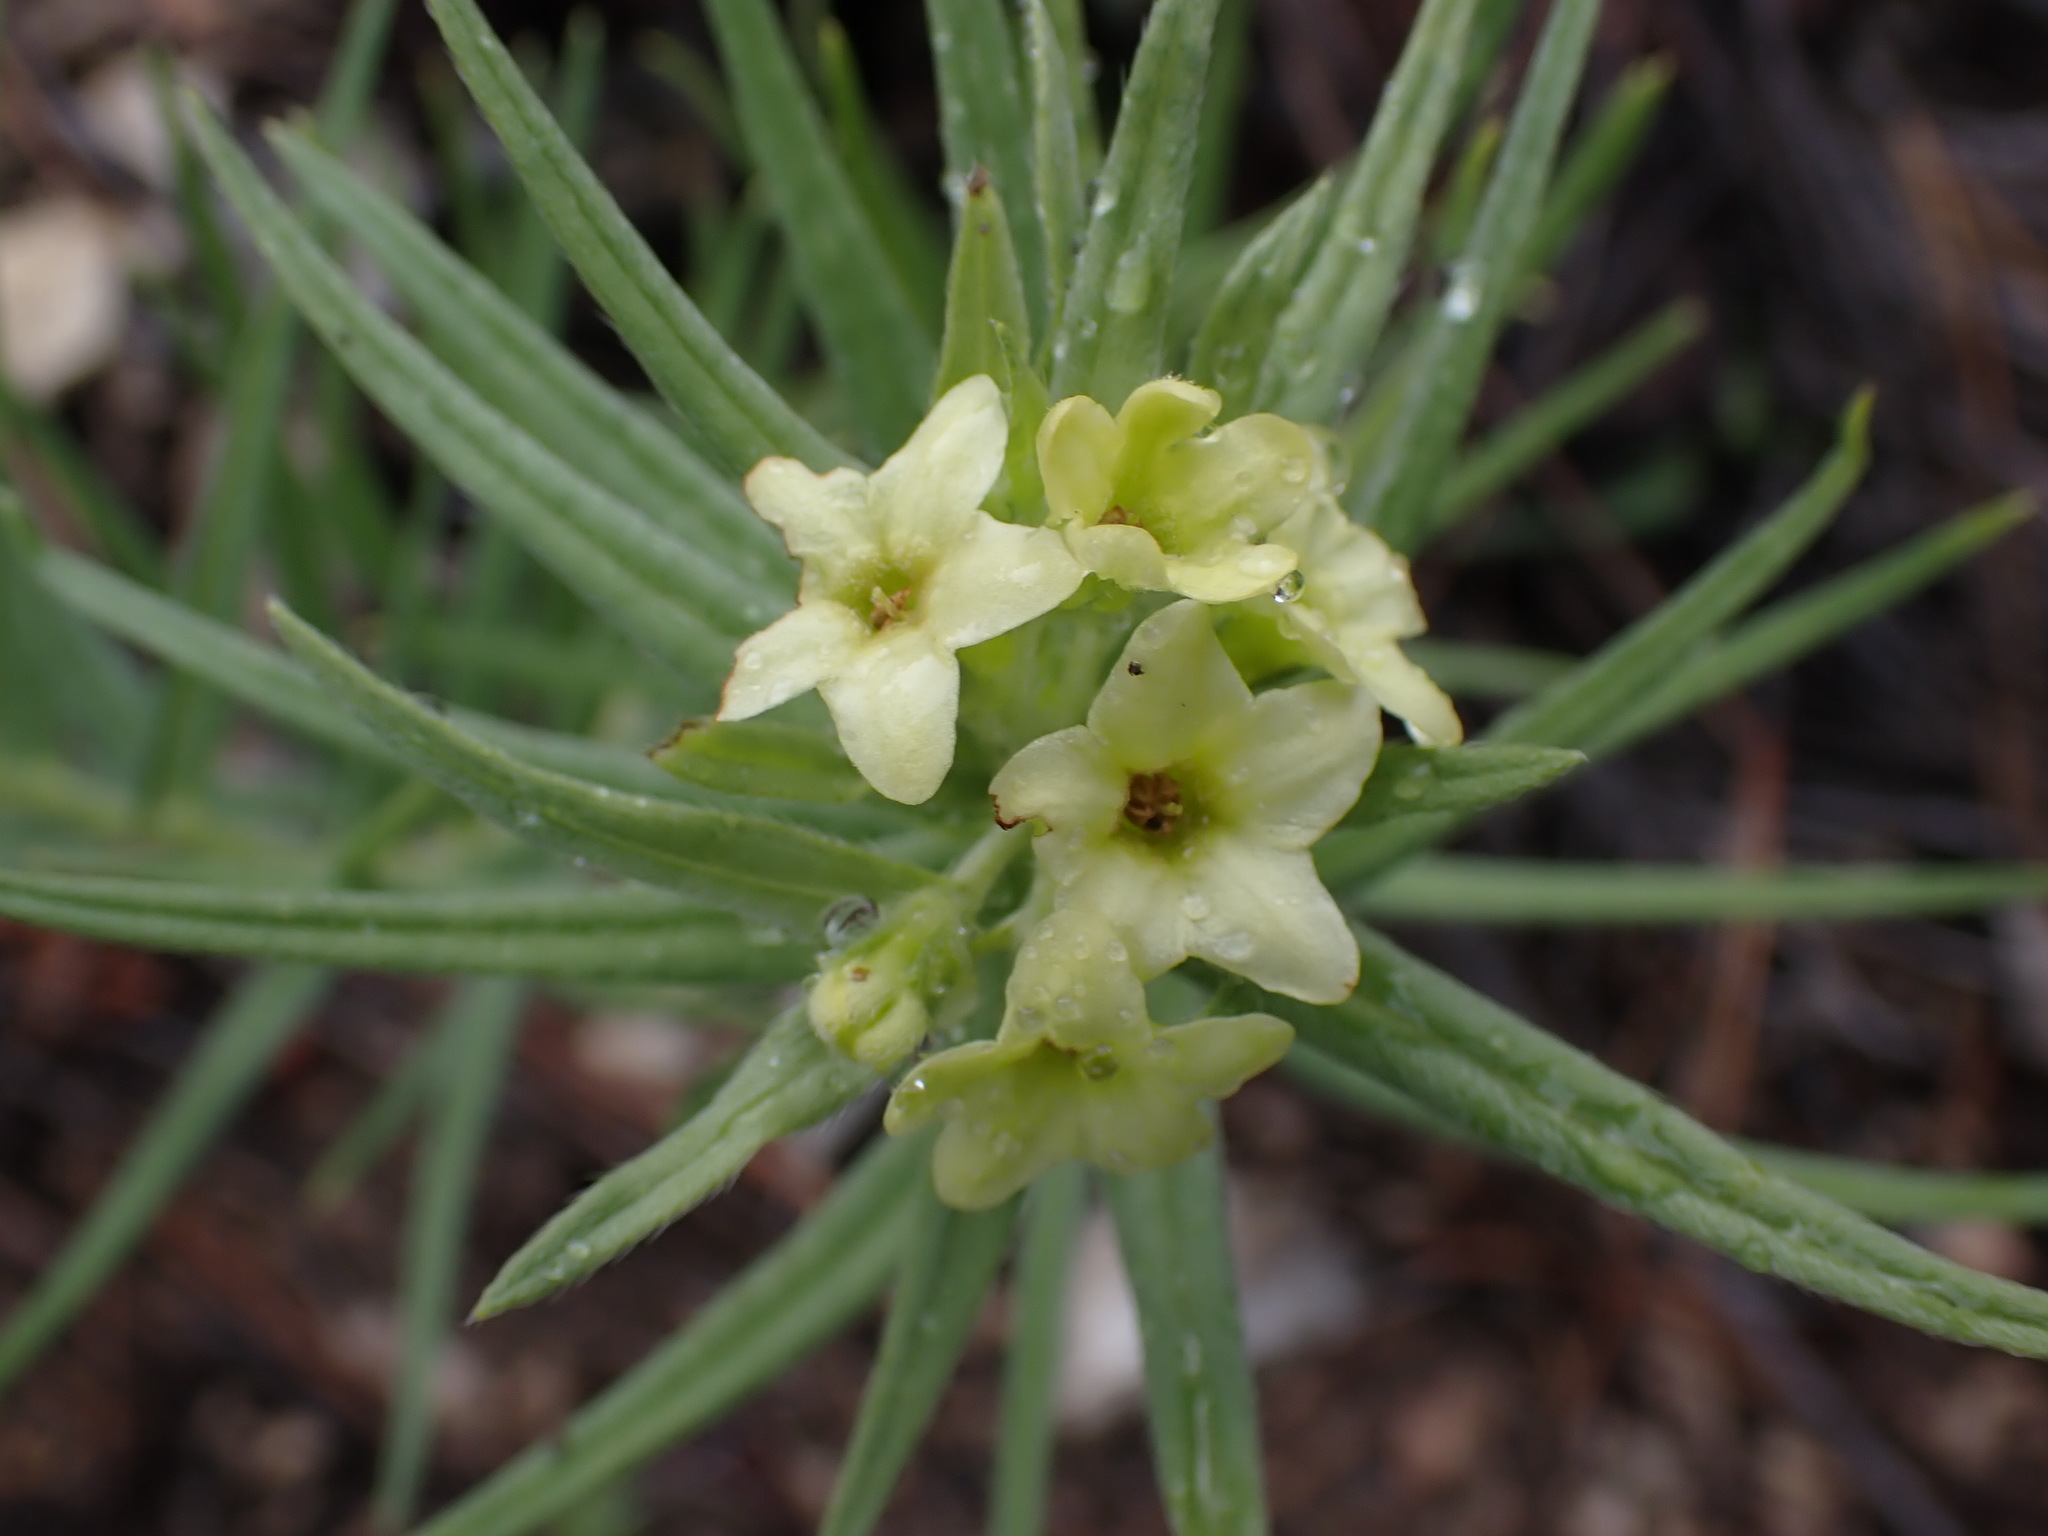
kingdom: Plantae
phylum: Tracheophyta
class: Magnoliopsida
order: Boraginales
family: Boraginaceae
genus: Lithospermum
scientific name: Lithospermum ruderale
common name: Western gromwell
